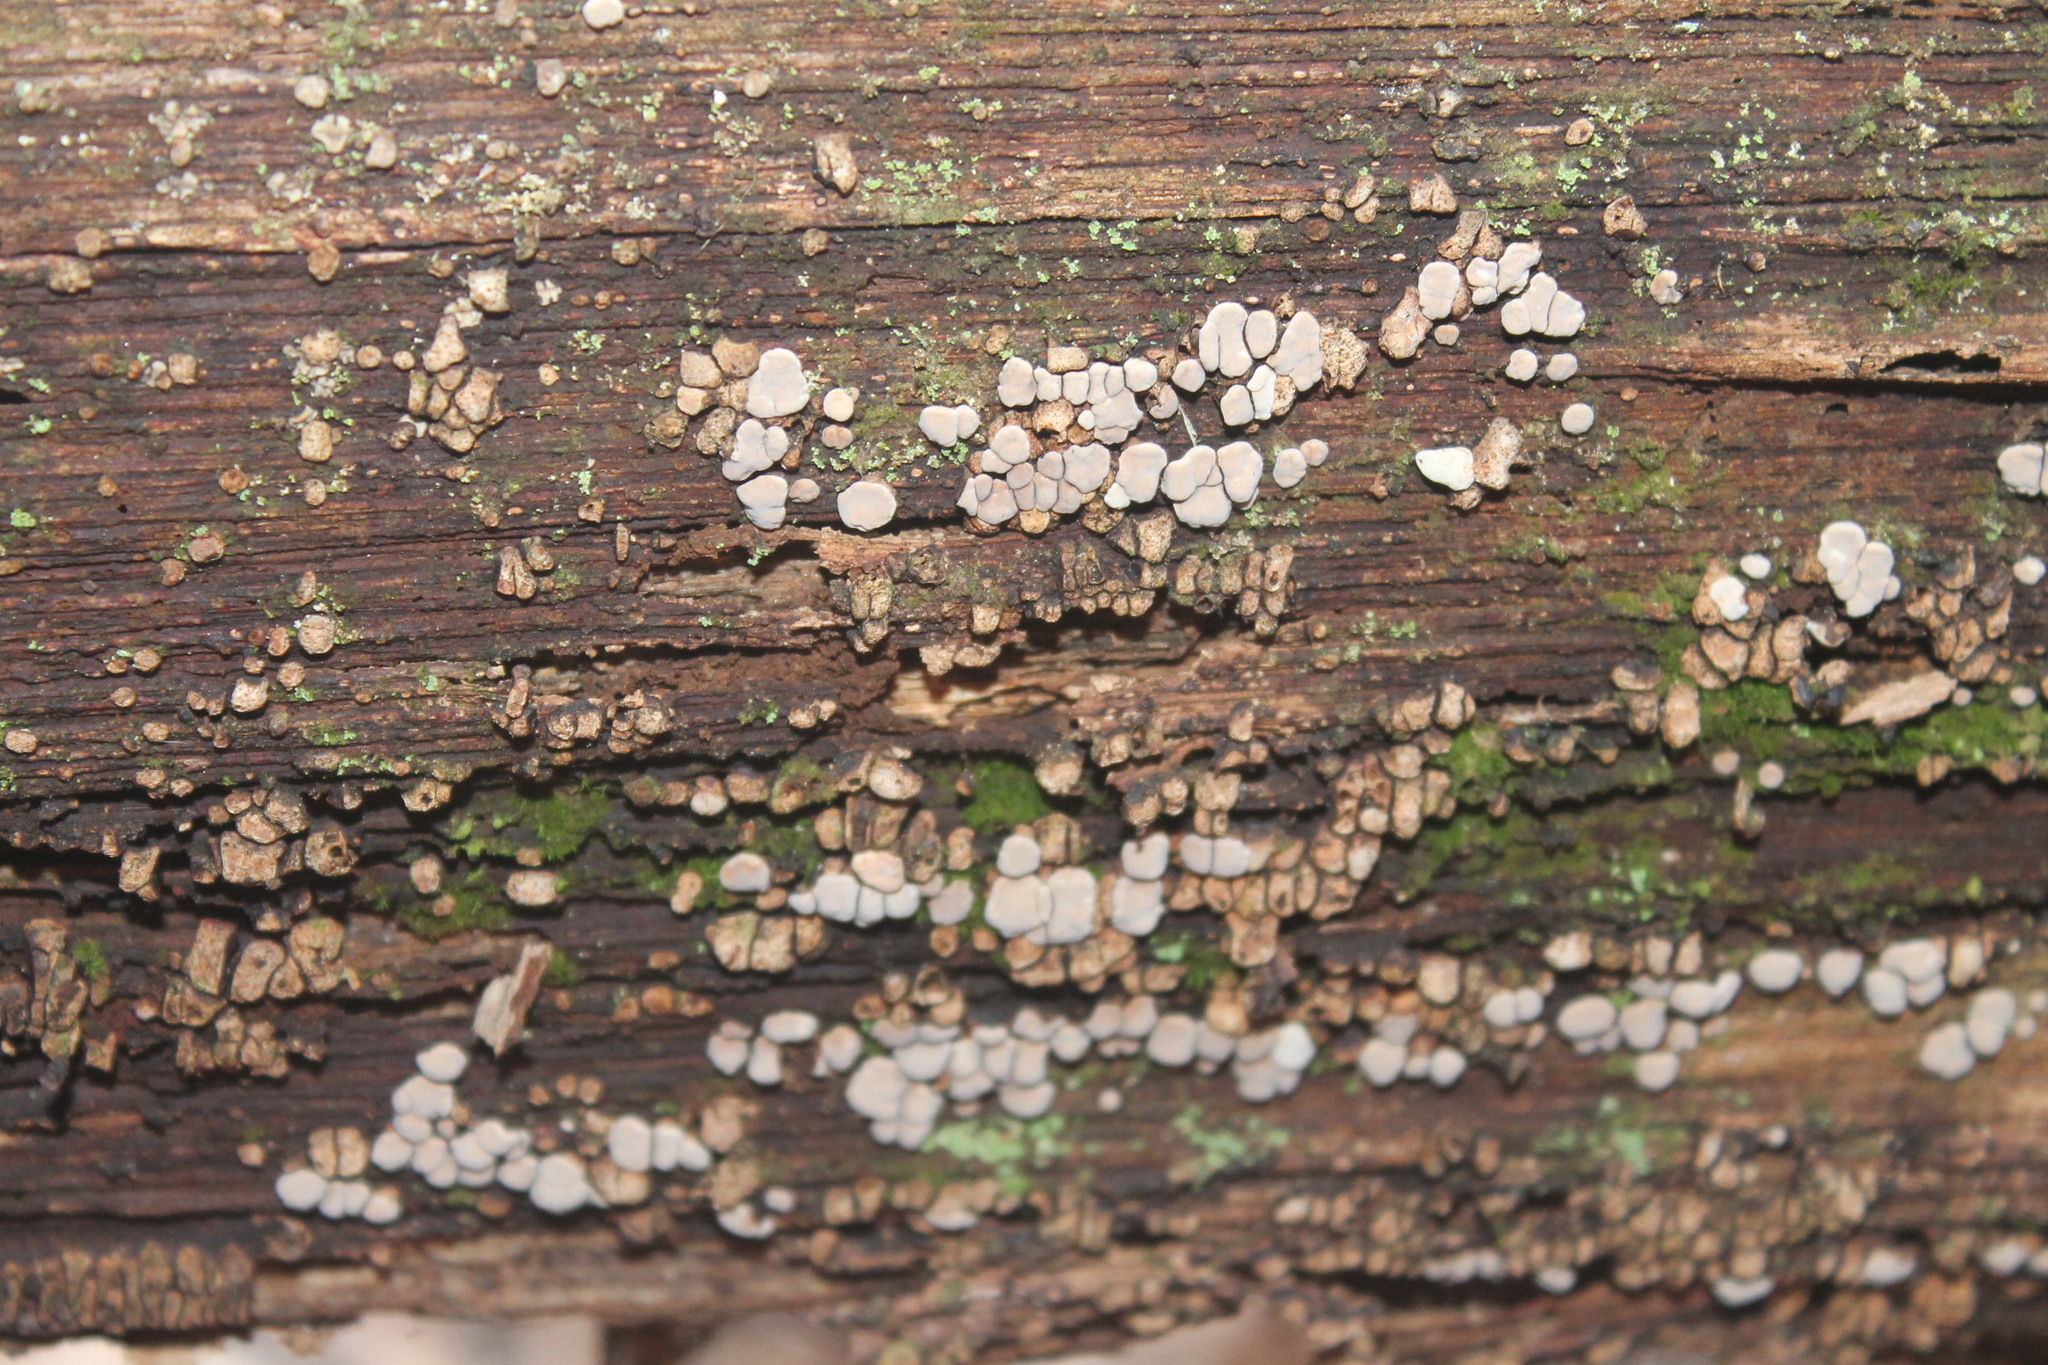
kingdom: Fungi
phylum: Basidiomycota
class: Agaricomycetes
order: Russulales
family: Stereaceae
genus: Xylobolus
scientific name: Xylobolus frustulatus
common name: Ceramic parchment
